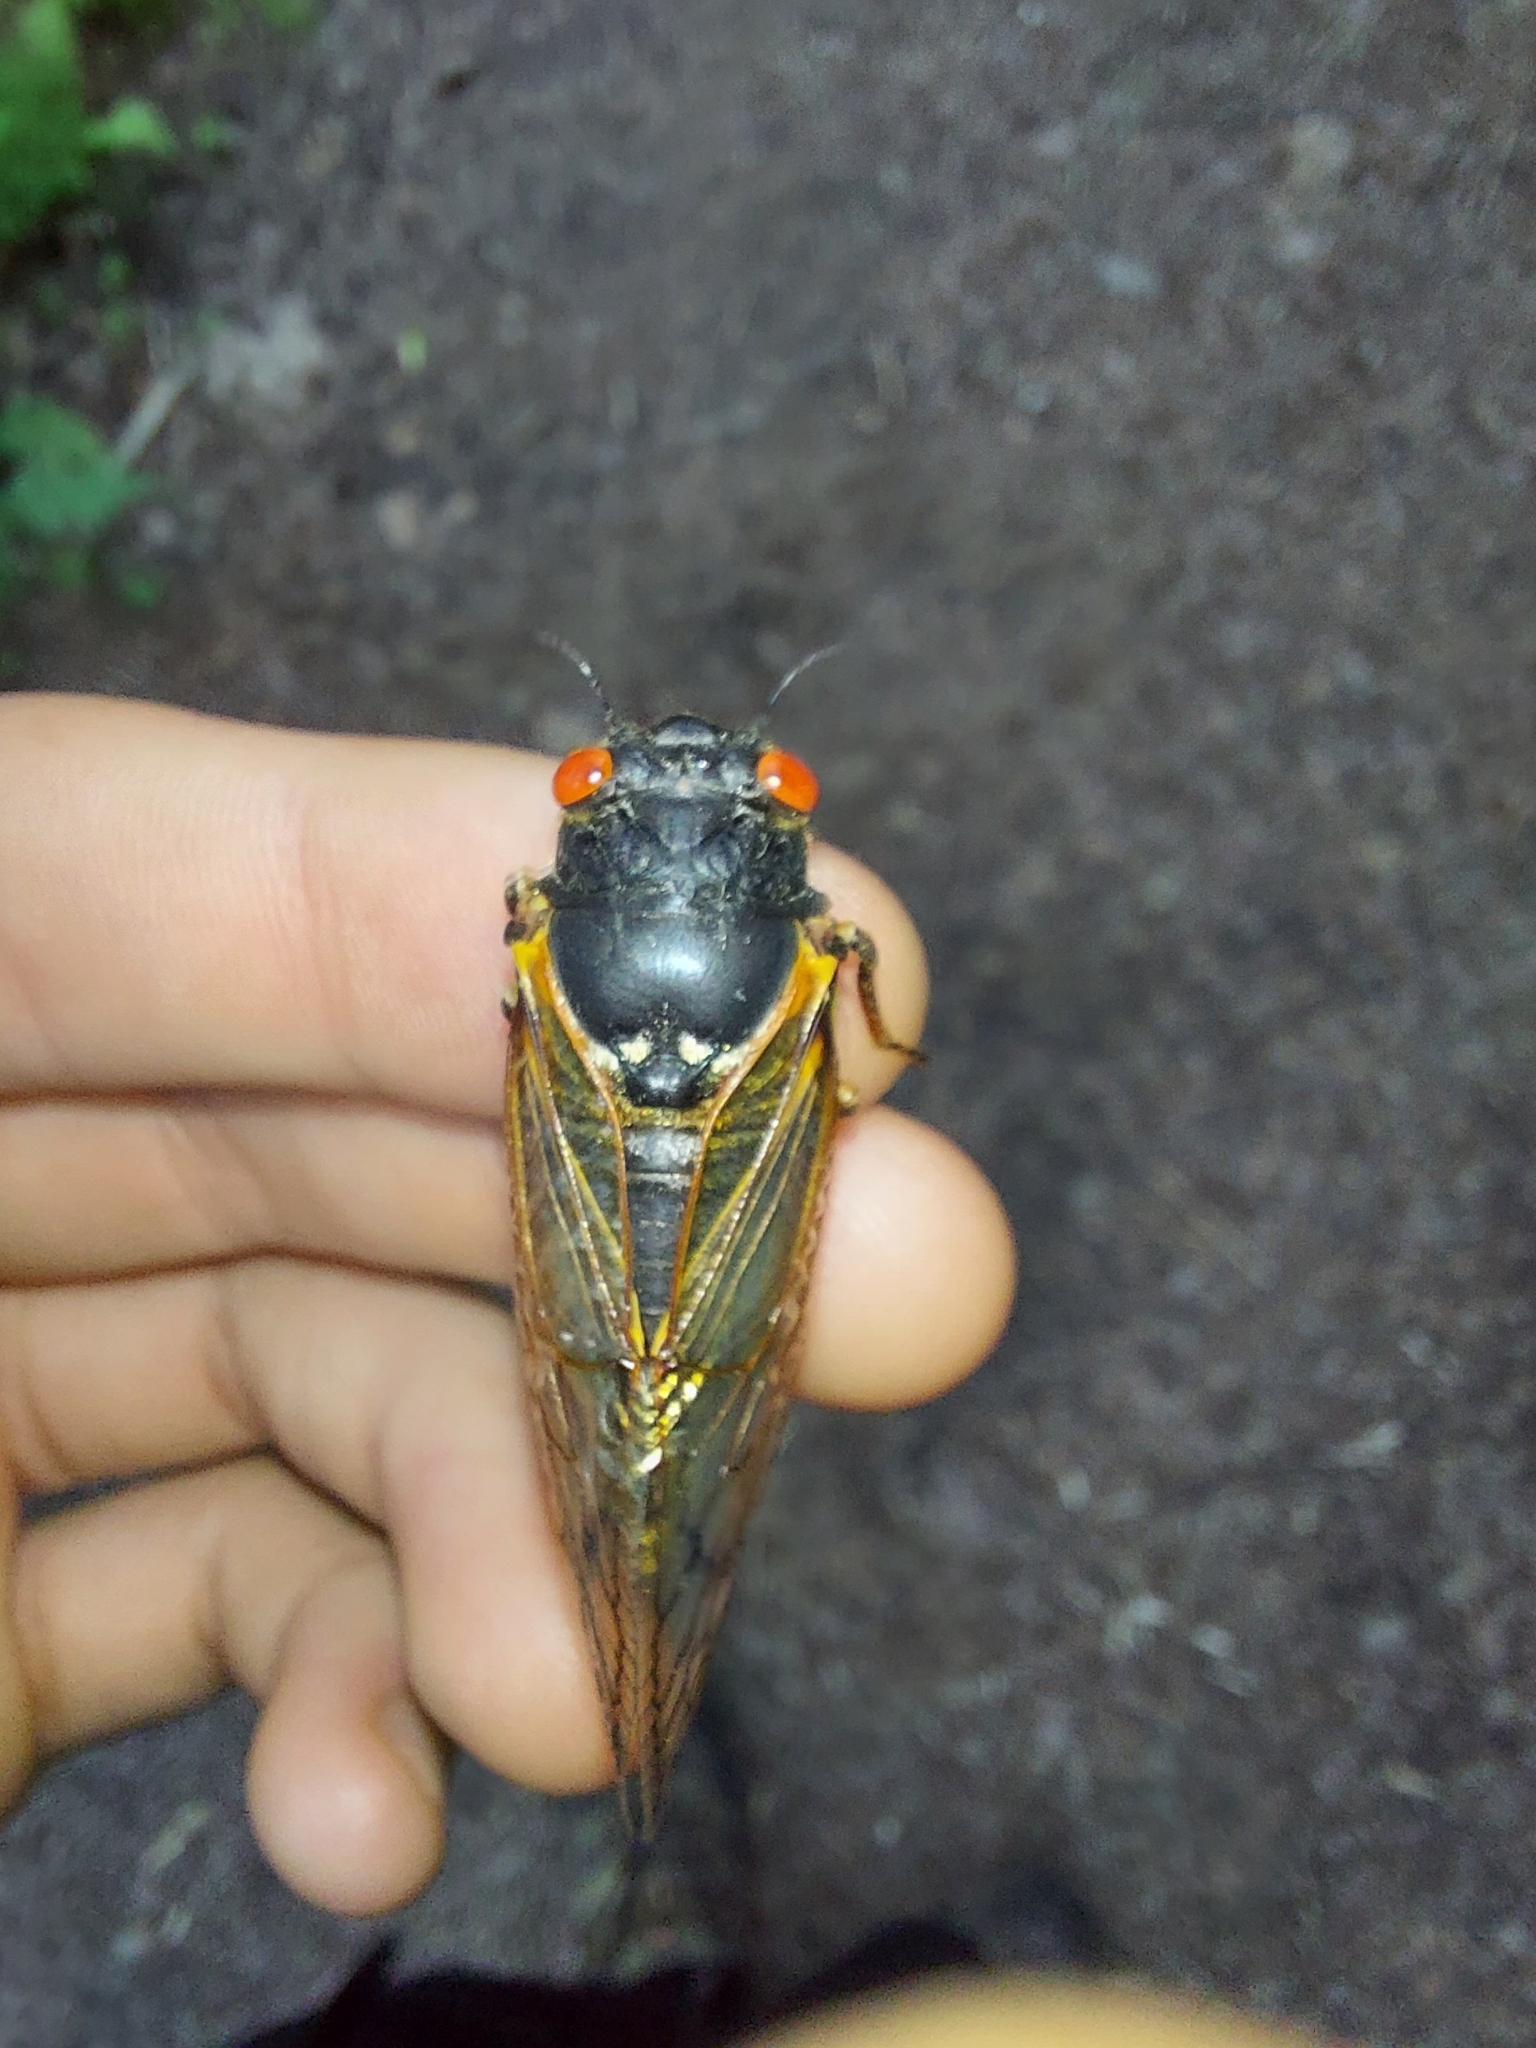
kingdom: Animalia
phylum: Arthropoda
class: Insecta
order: Hemiptera
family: Cicadidae
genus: Magicicada
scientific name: Magicicada septendecim
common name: Periodical cicada
